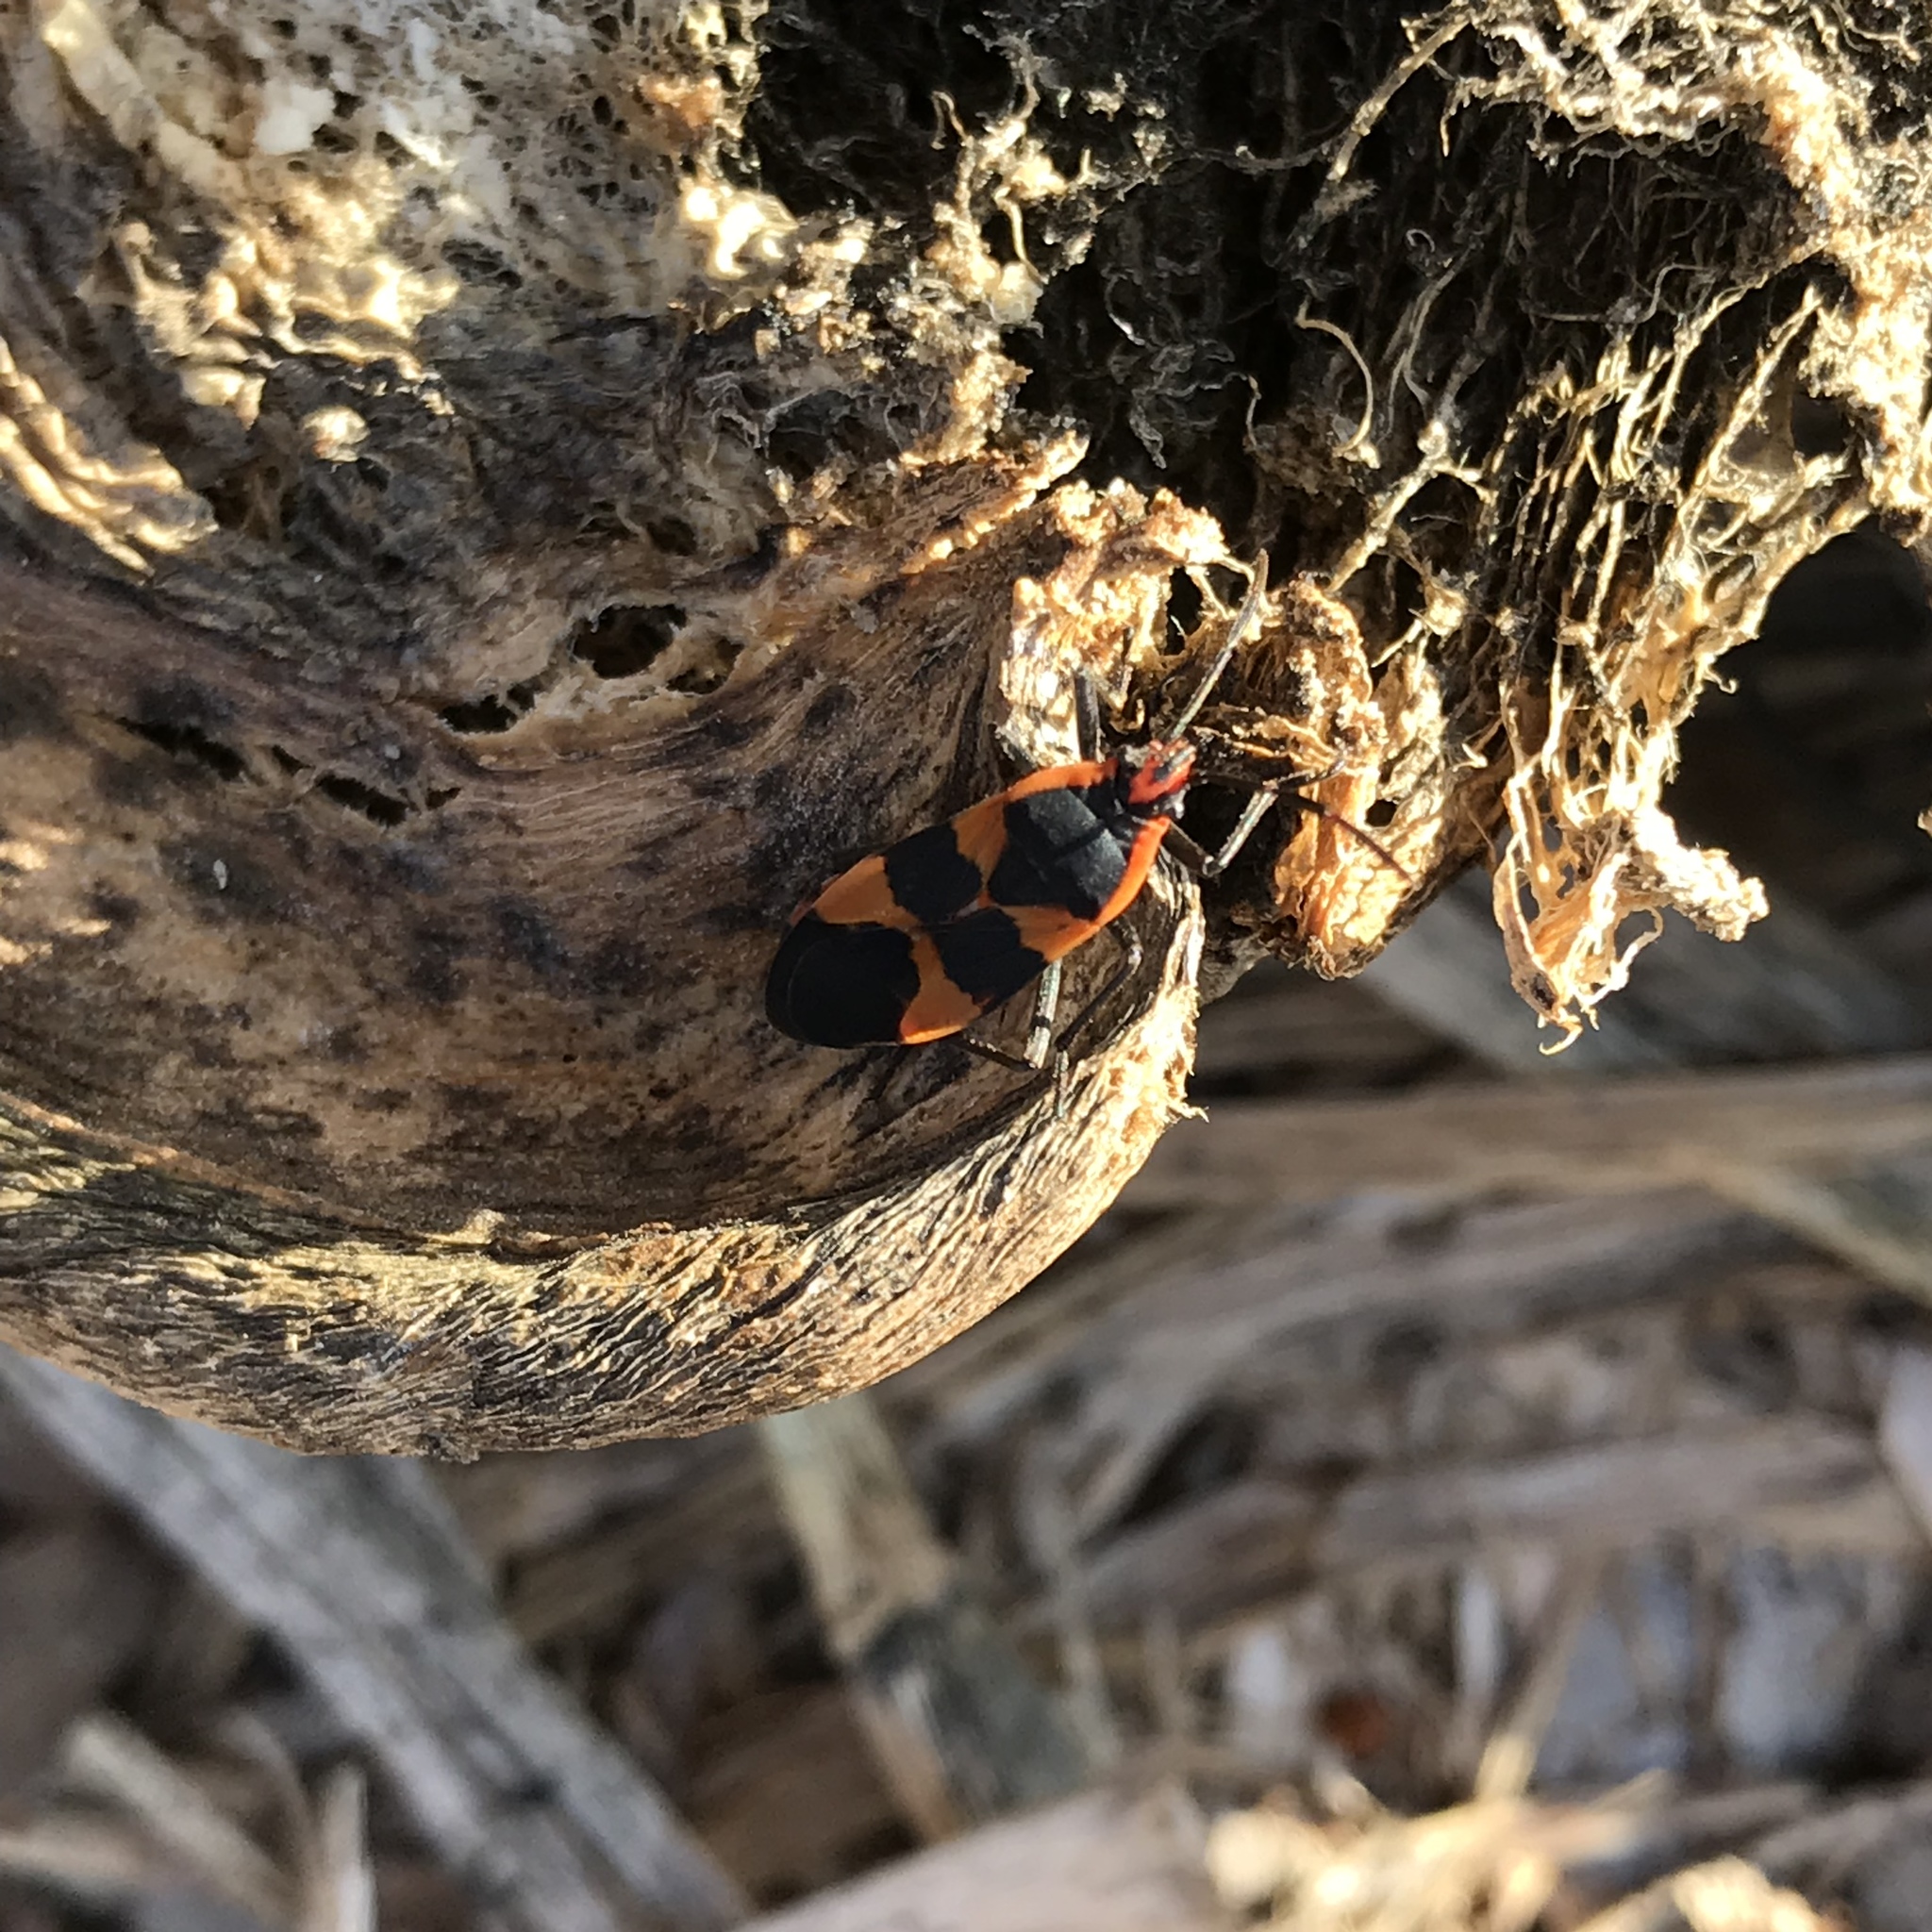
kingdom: Animalia
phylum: Arthropoda
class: Insecta
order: Hemiptera
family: Lygaeidae
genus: Oncopeltus
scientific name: Oncopeltus fasciatus
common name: Large milkweed bug
